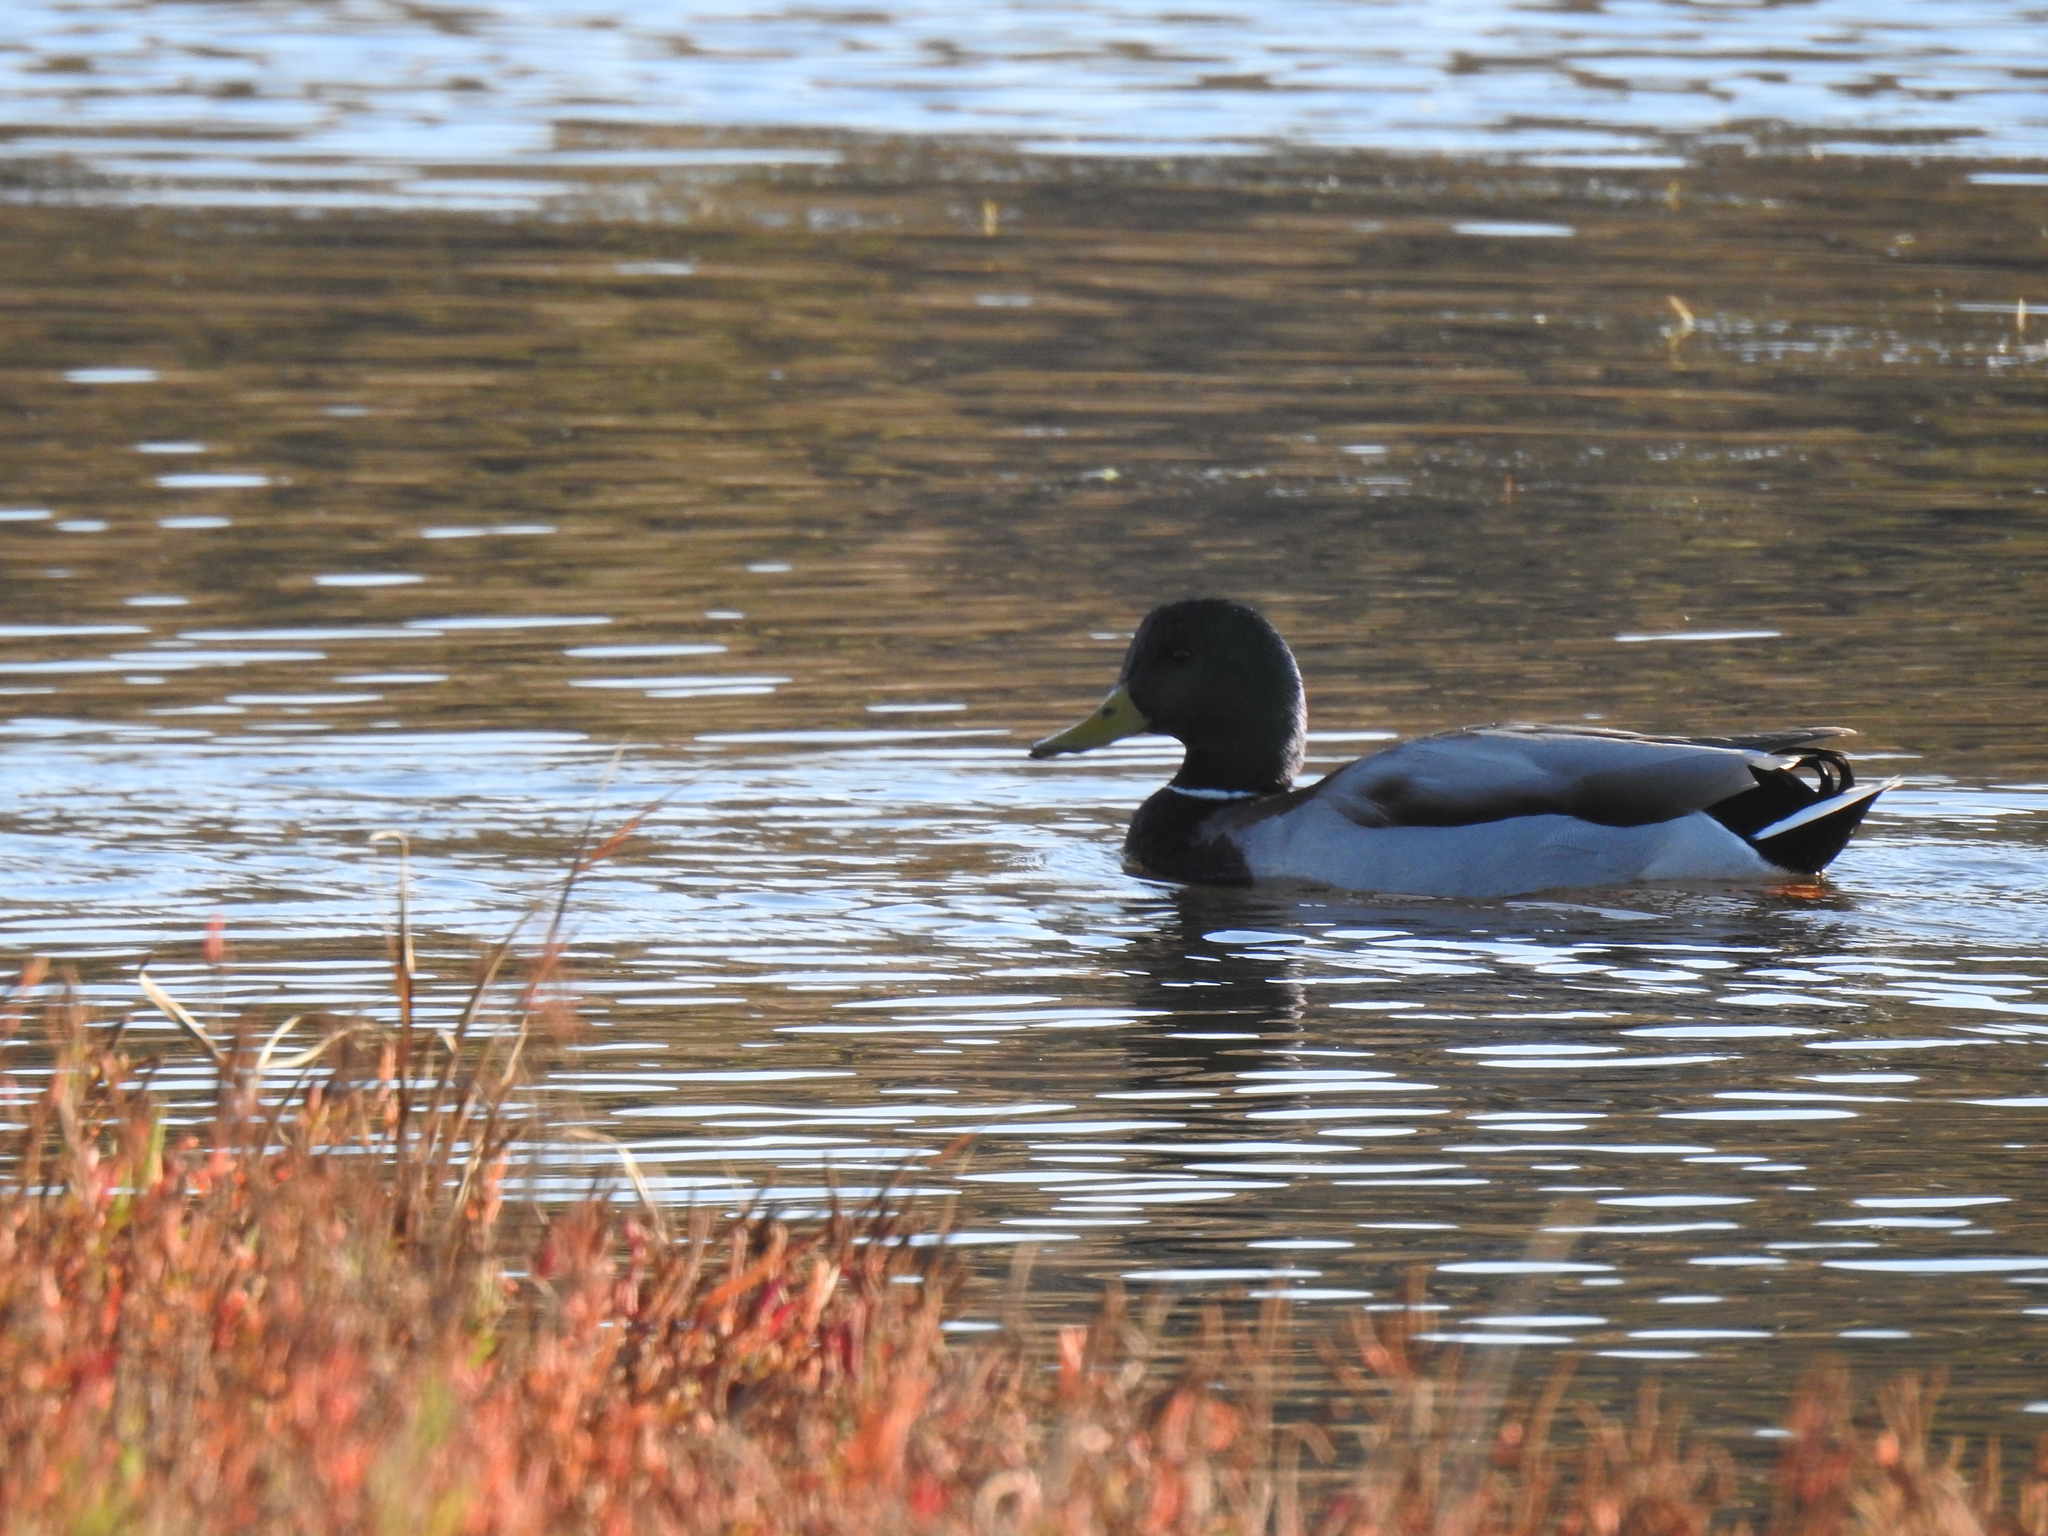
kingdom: Animalia
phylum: Chordata
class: Aves
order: Anseriformes
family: Anatidae
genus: Anas
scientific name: Anas platyrhynchos
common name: Mallard
